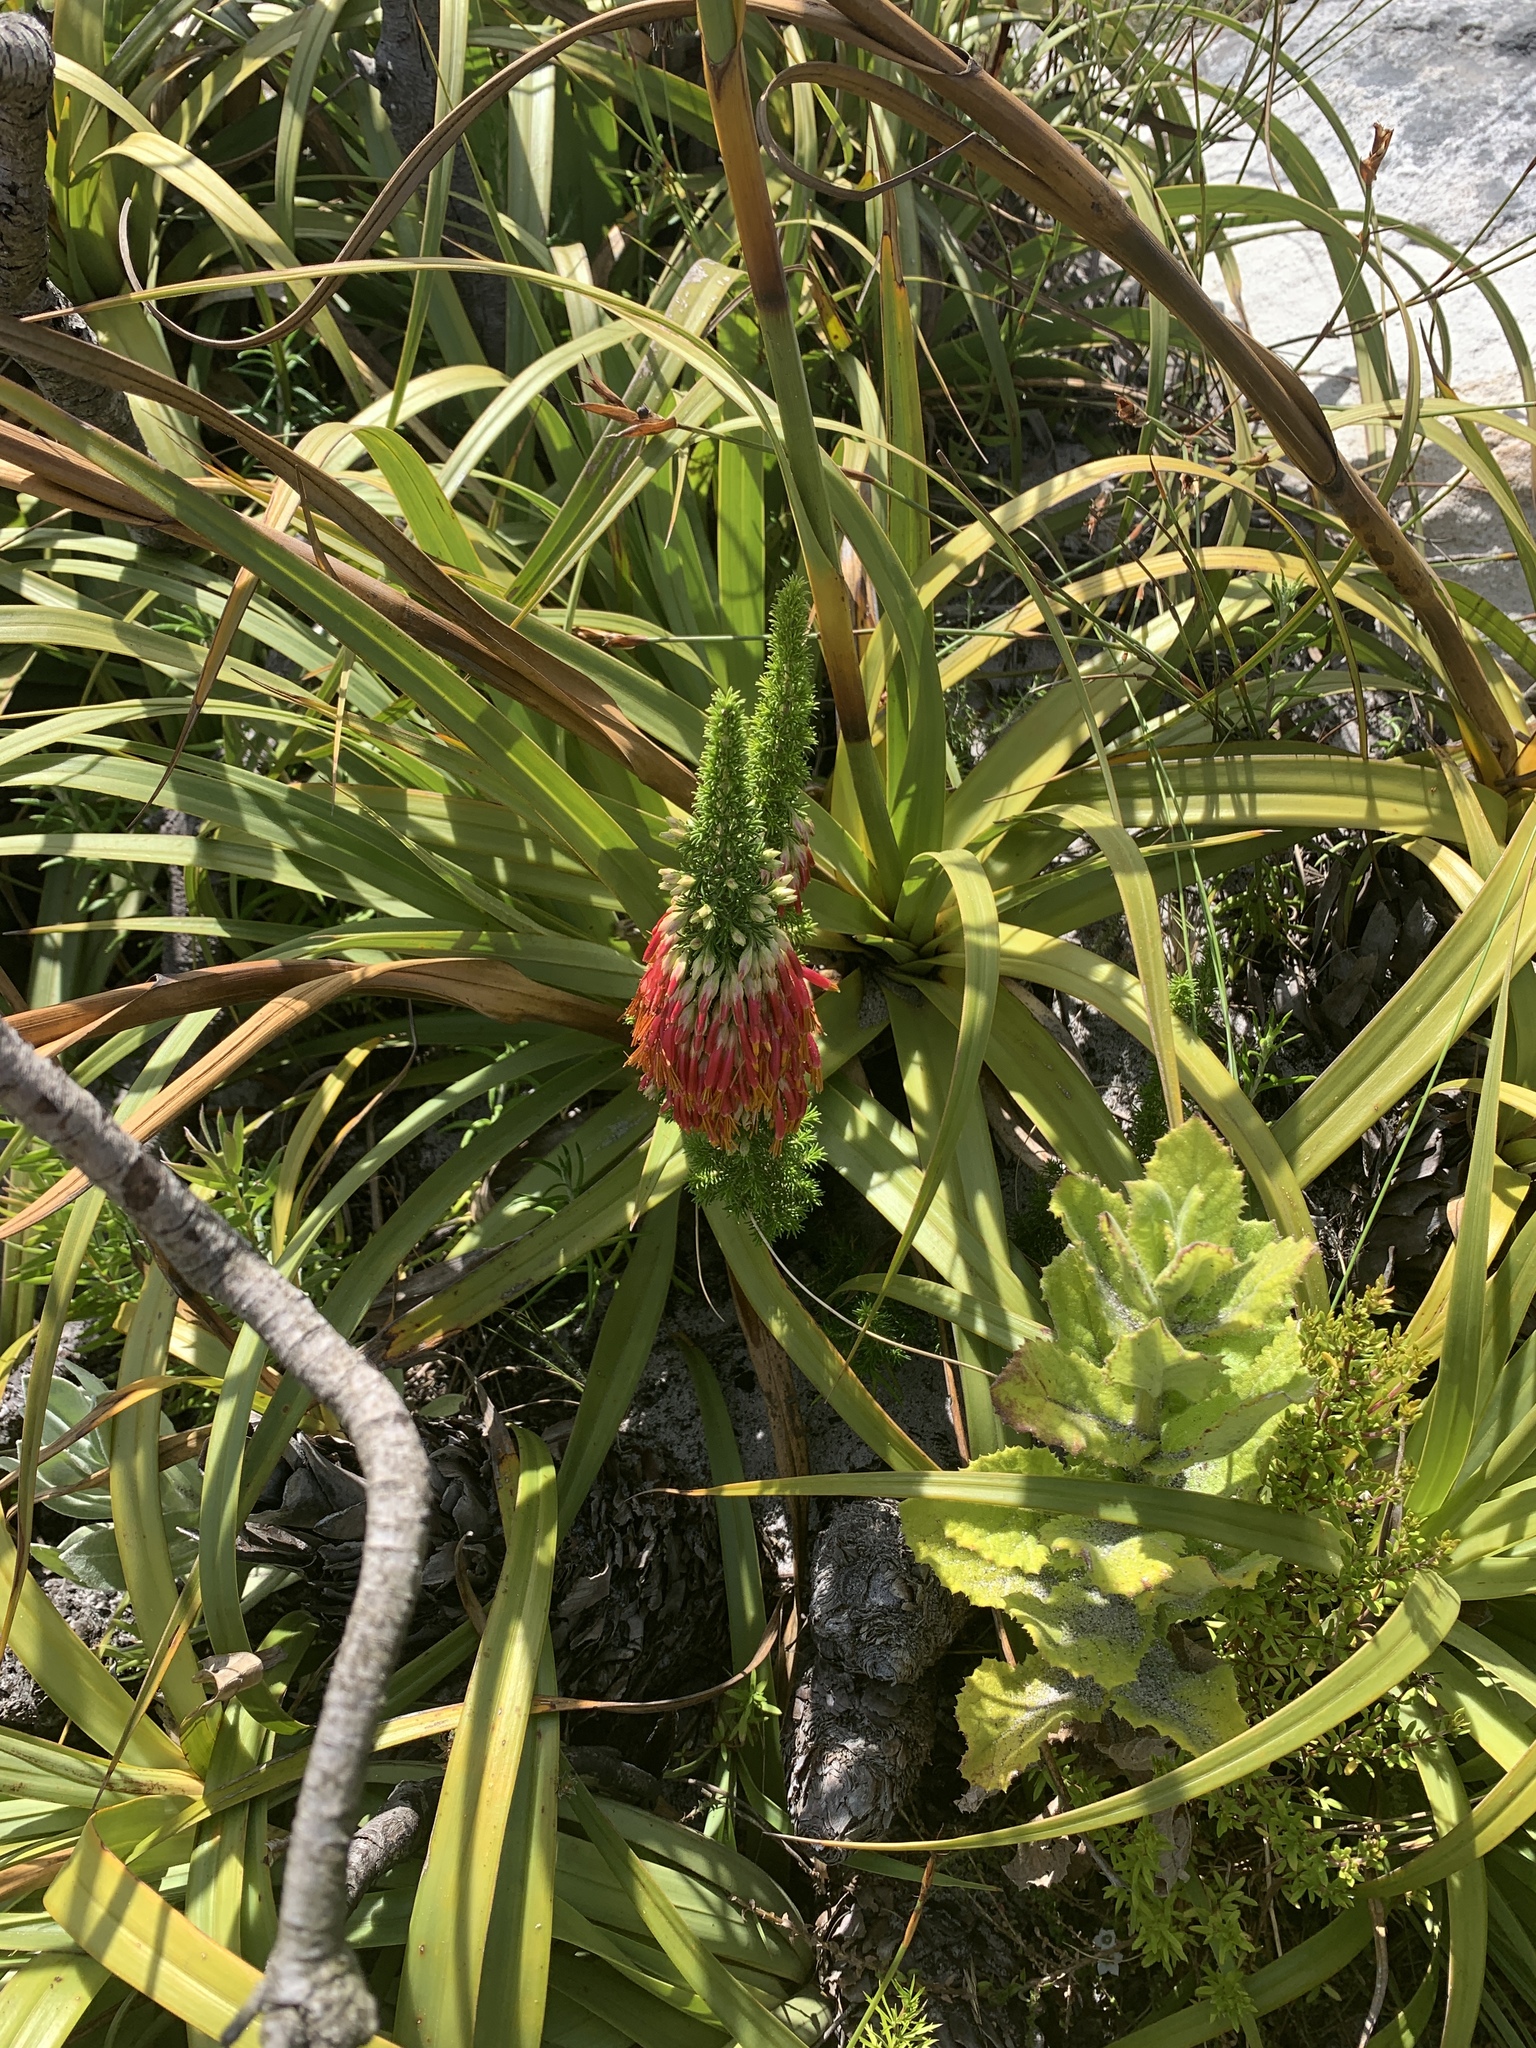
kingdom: Plantae
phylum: Tracheophyta
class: Magnoliopsida
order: Ericales
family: Ericaceae
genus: Erica
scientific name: Erica coccinea
